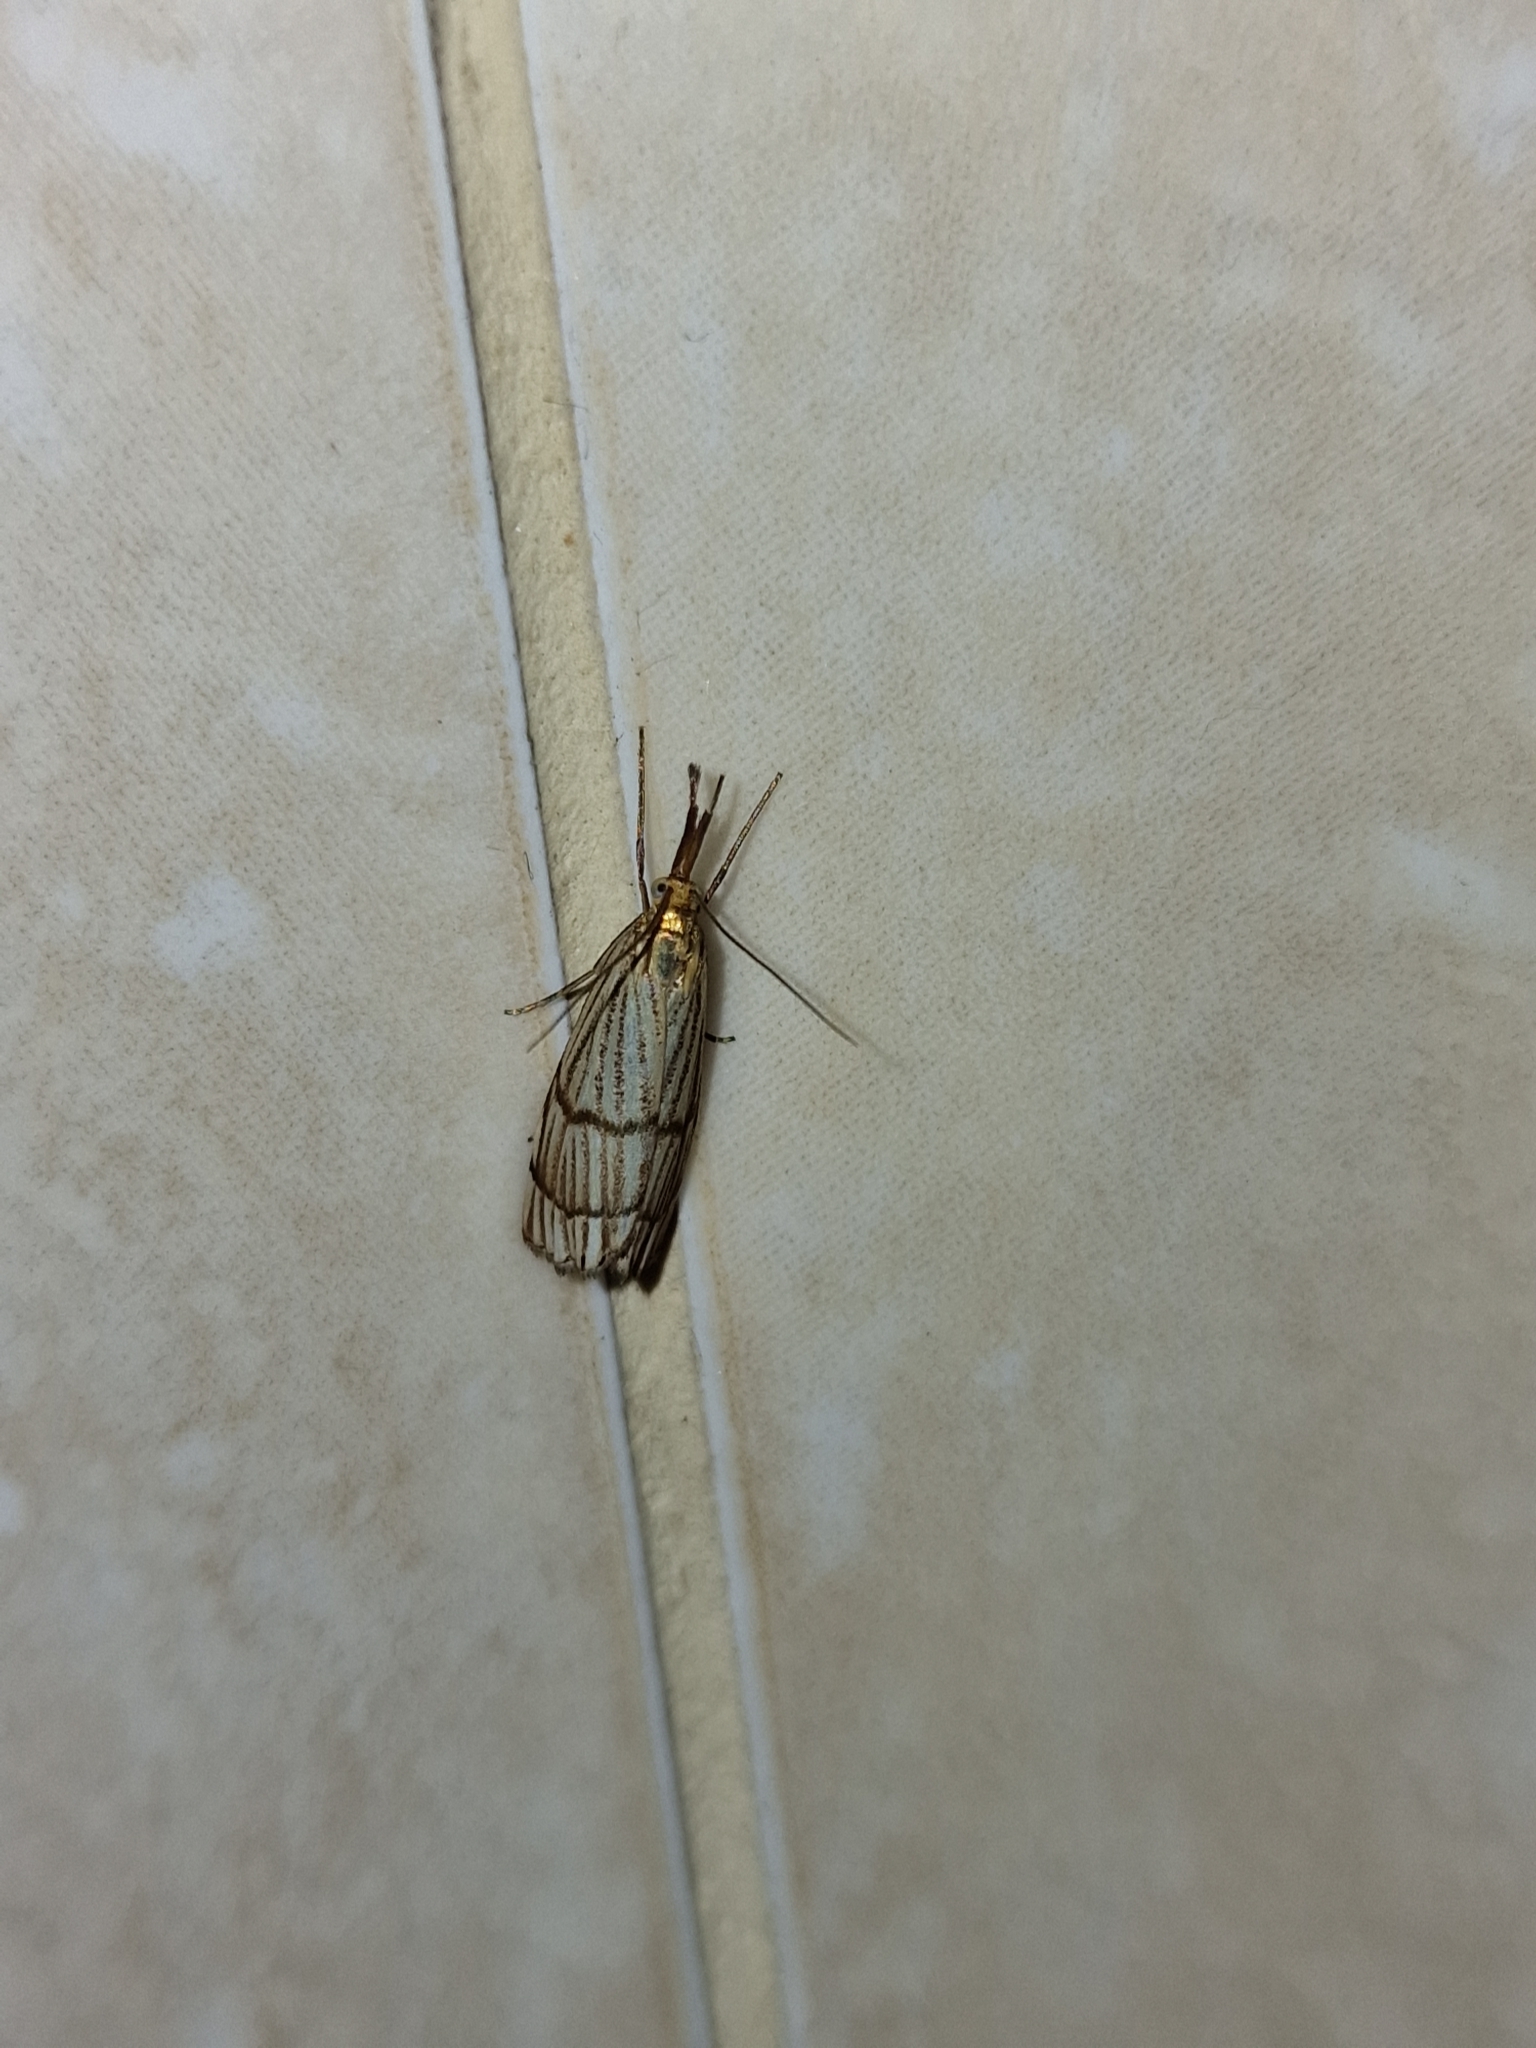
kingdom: Animalia
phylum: Arthropoda
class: Insecta
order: Lepidoptera
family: Crambidae
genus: Chrysocrambus
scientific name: Chrysocrambus linetella
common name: Orange-bar grass-veneer
